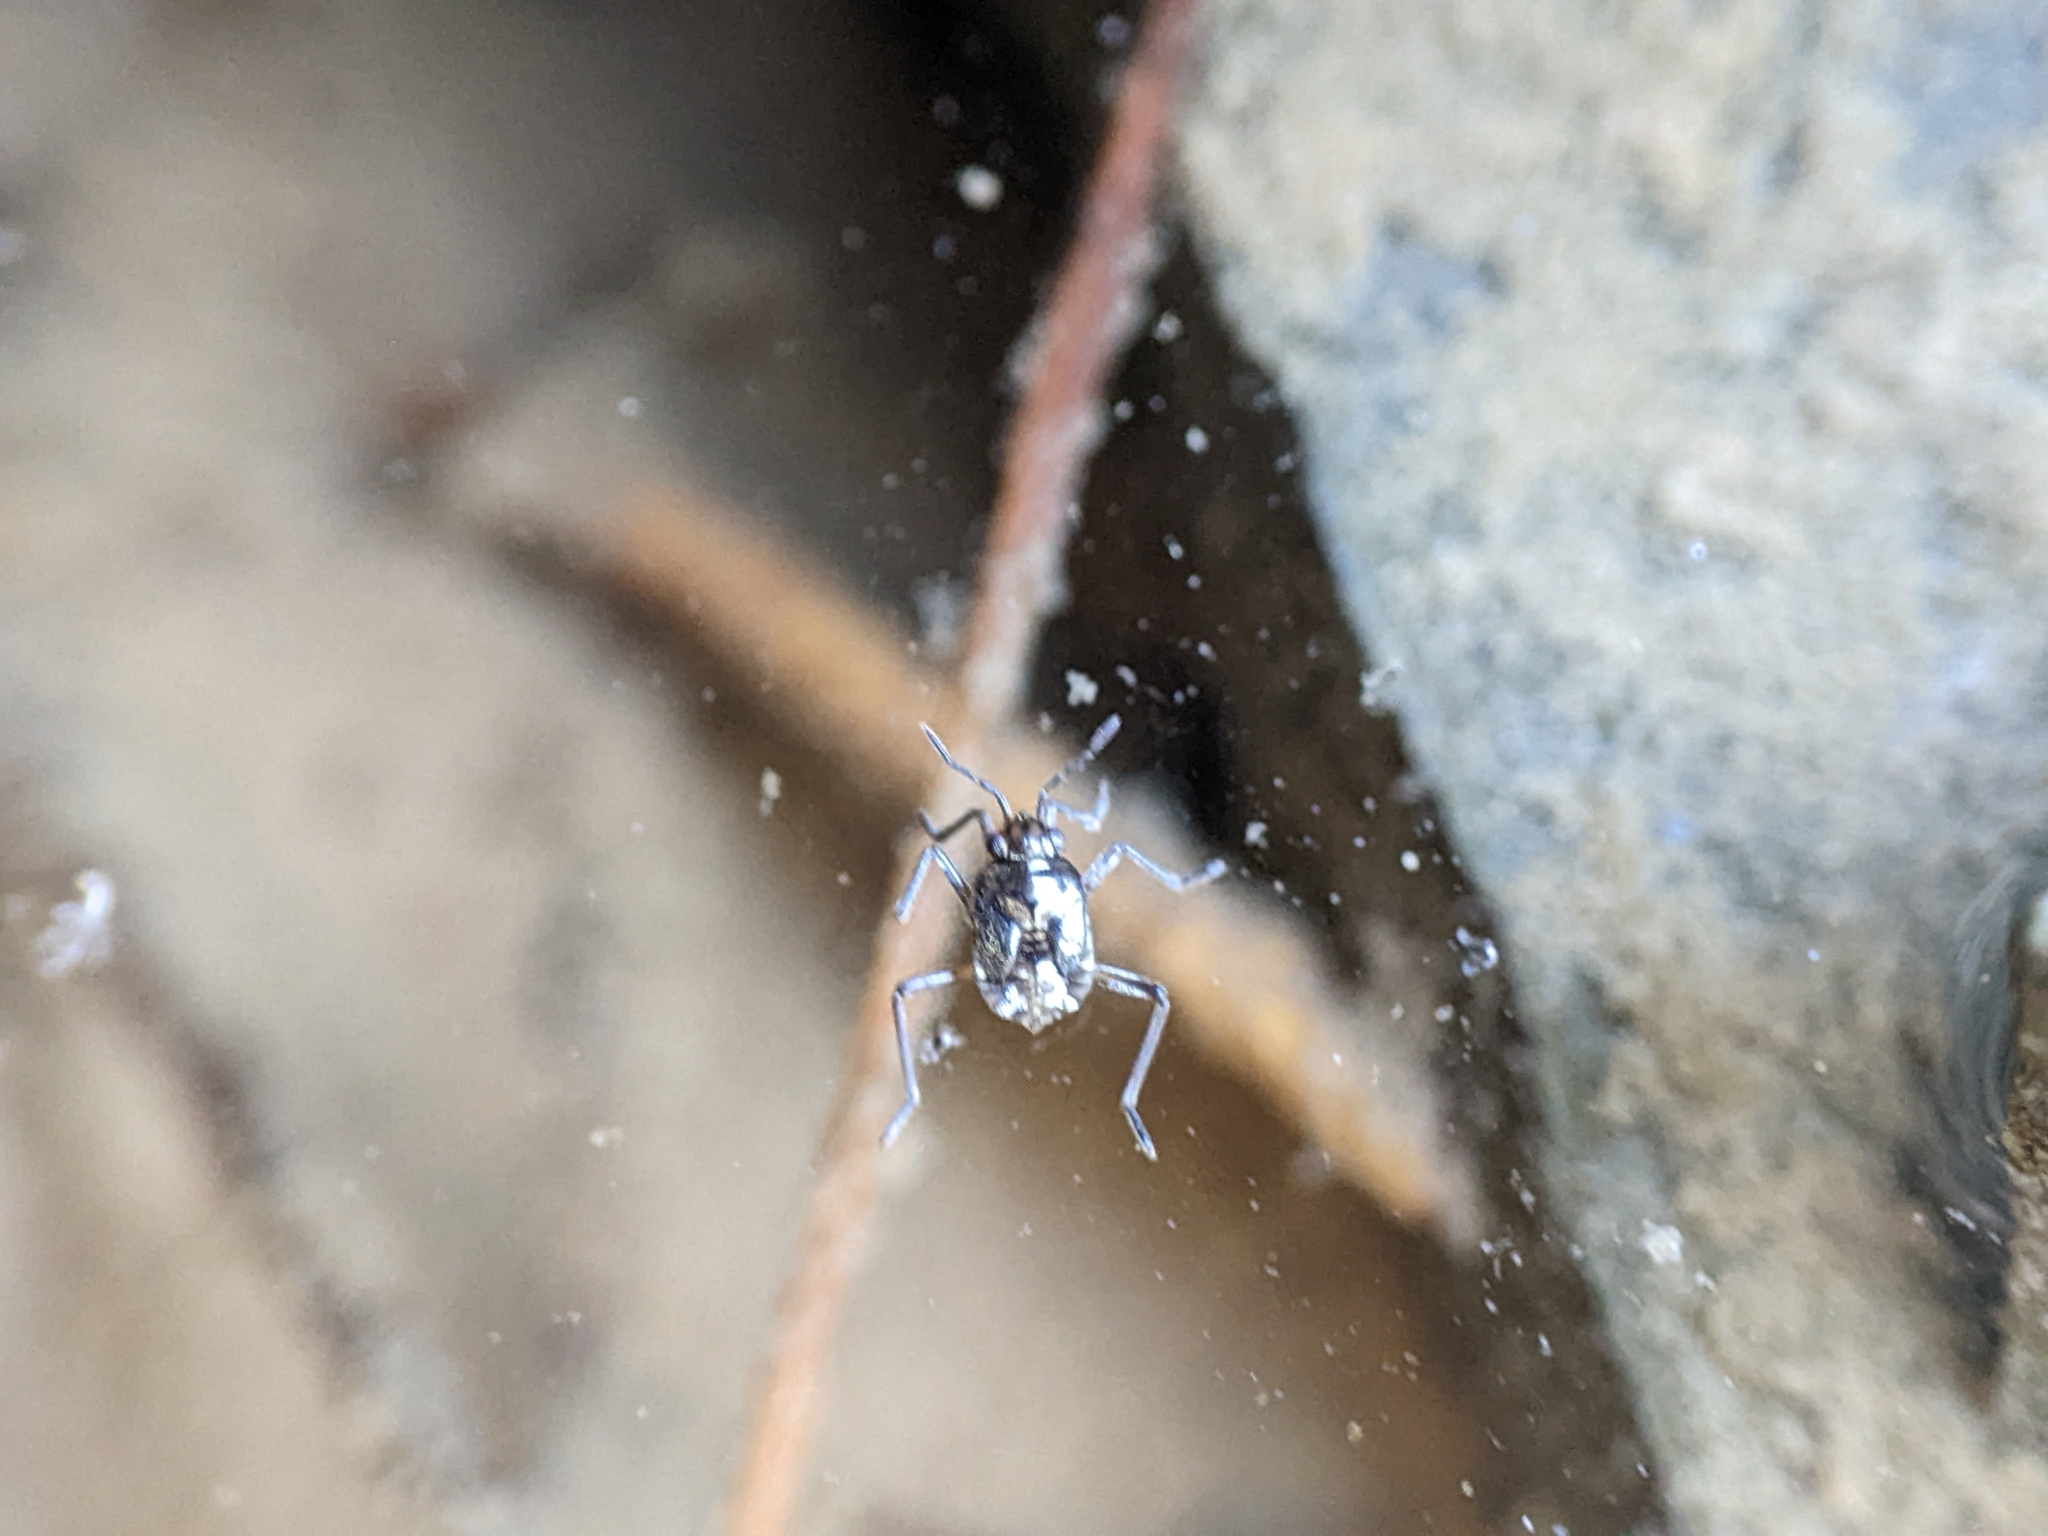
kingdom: Animalia
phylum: Arthropoda
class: Insecta
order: Hemiptera
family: Veliidae
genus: Microvelia
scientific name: Microvelia
